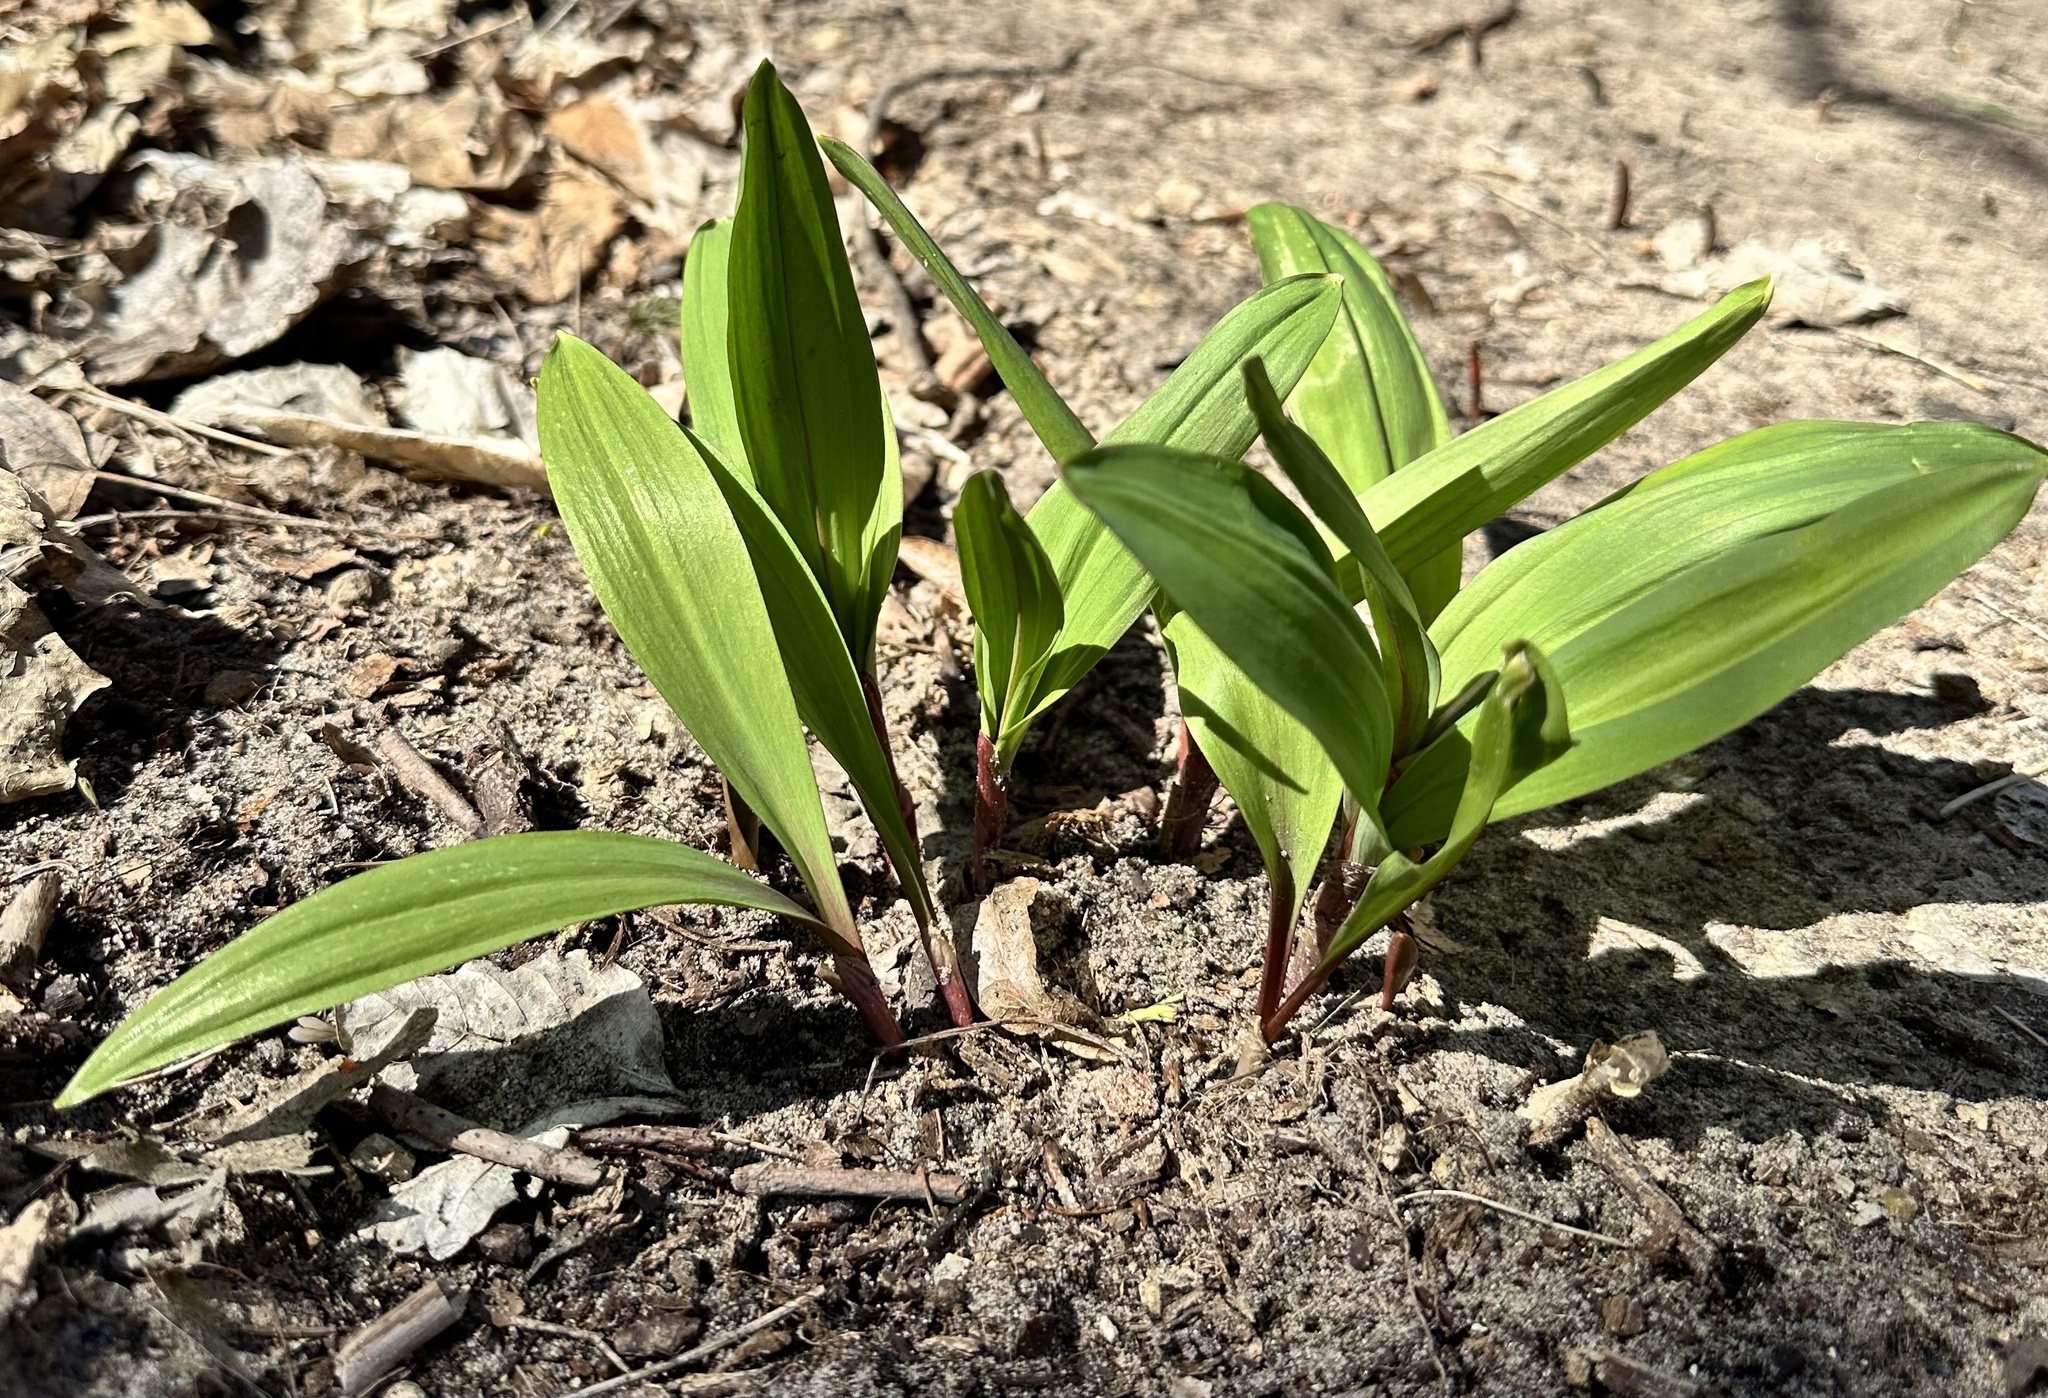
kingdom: Plantae
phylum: Tracheophyta
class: Liliopsida
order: Asparagales
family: Amaryllidaceae
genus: Allium
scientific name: Allium tricoccum
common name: Ramp
